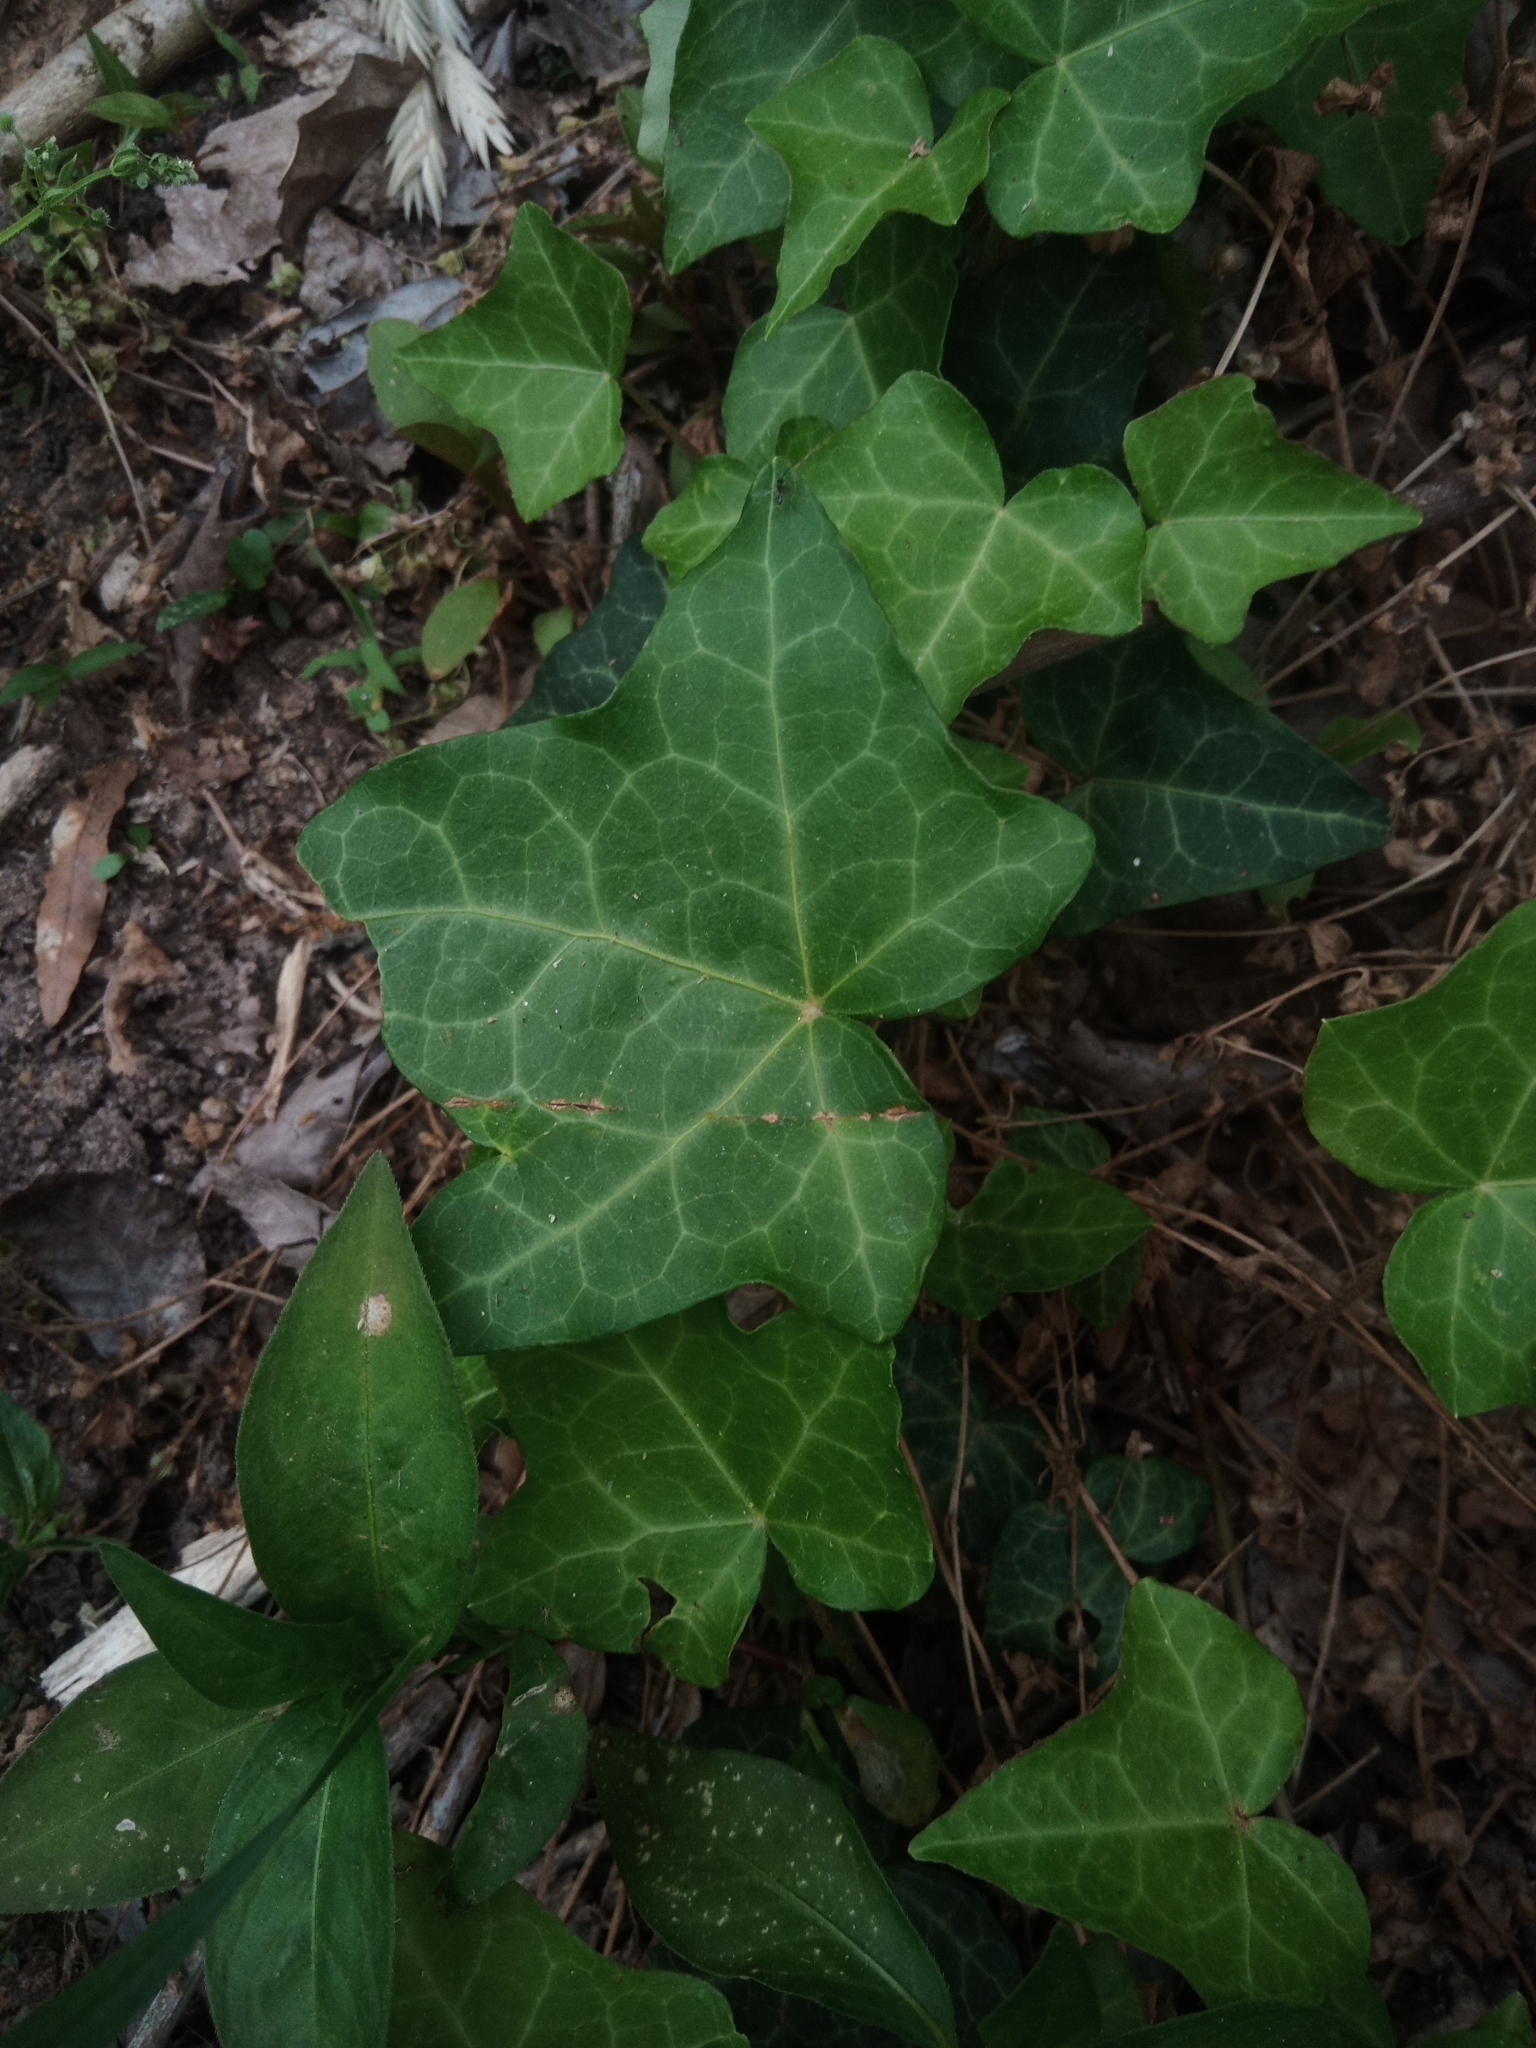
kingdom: Plantae
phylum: Tracheophyta
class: Magnoliopsida
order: Apiales
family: Araliaceae
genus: Hedera
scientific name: Hedera helix
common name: Ivy
